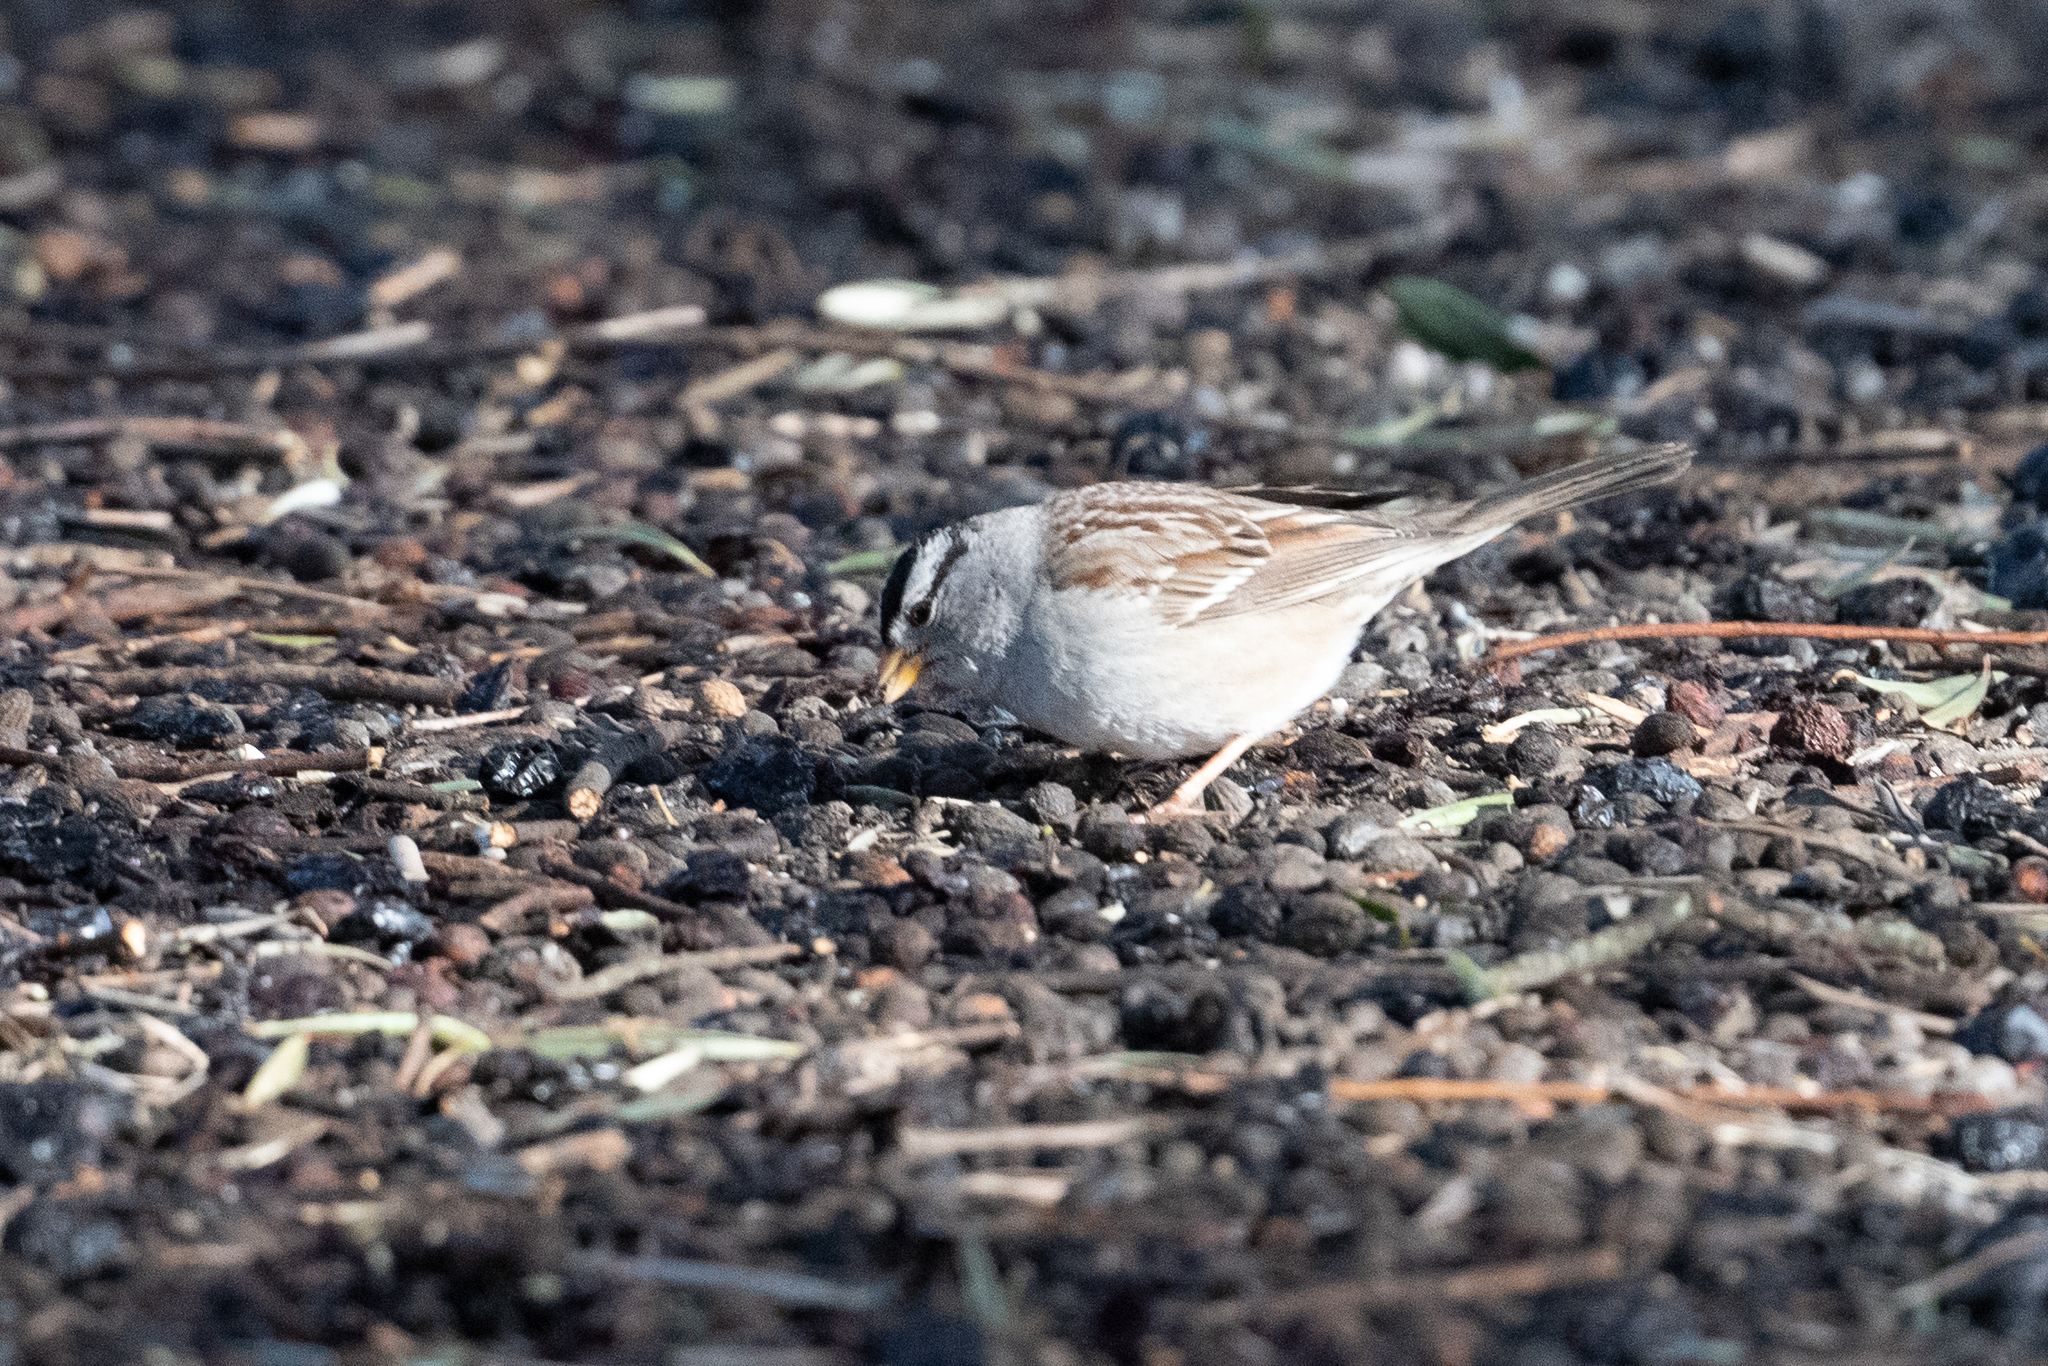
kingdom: Animalia
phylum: Chordata
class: Aves
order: Passeriformes
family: Passerellidae
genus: Zonotrichia
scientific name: Zonotrichia leucophrys
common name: White-crowned sparrow
